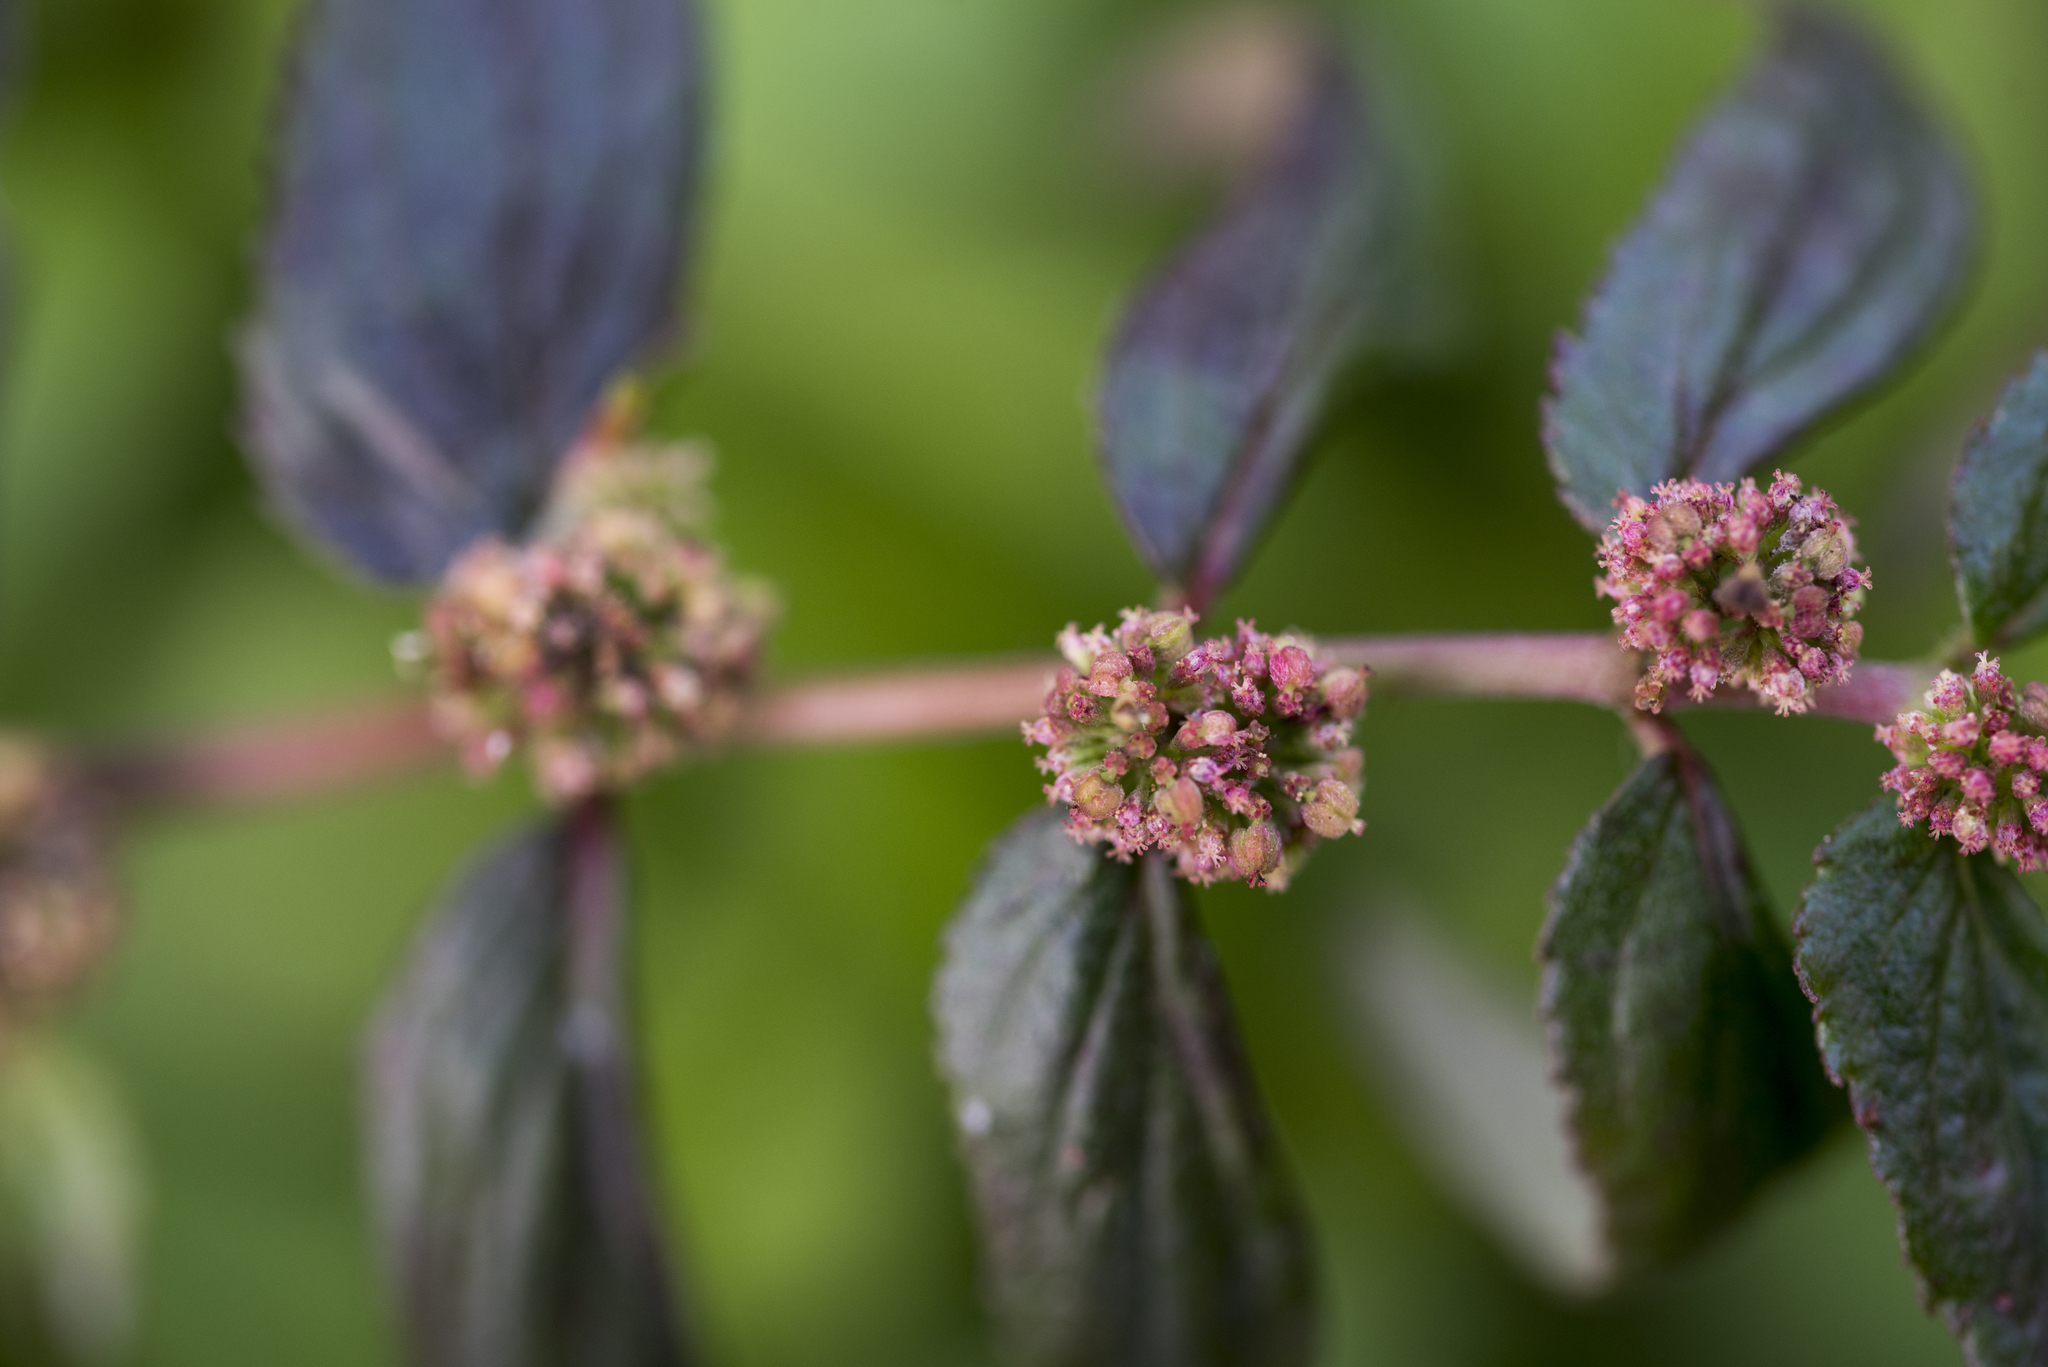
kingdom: Plantae
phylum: Tracheophyta
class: Magnoliopsida
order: Malpighiales
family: Euphorbiaceae
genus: Euphorbia
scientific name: Euphorbia hirta
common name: Pillpod sandmat
